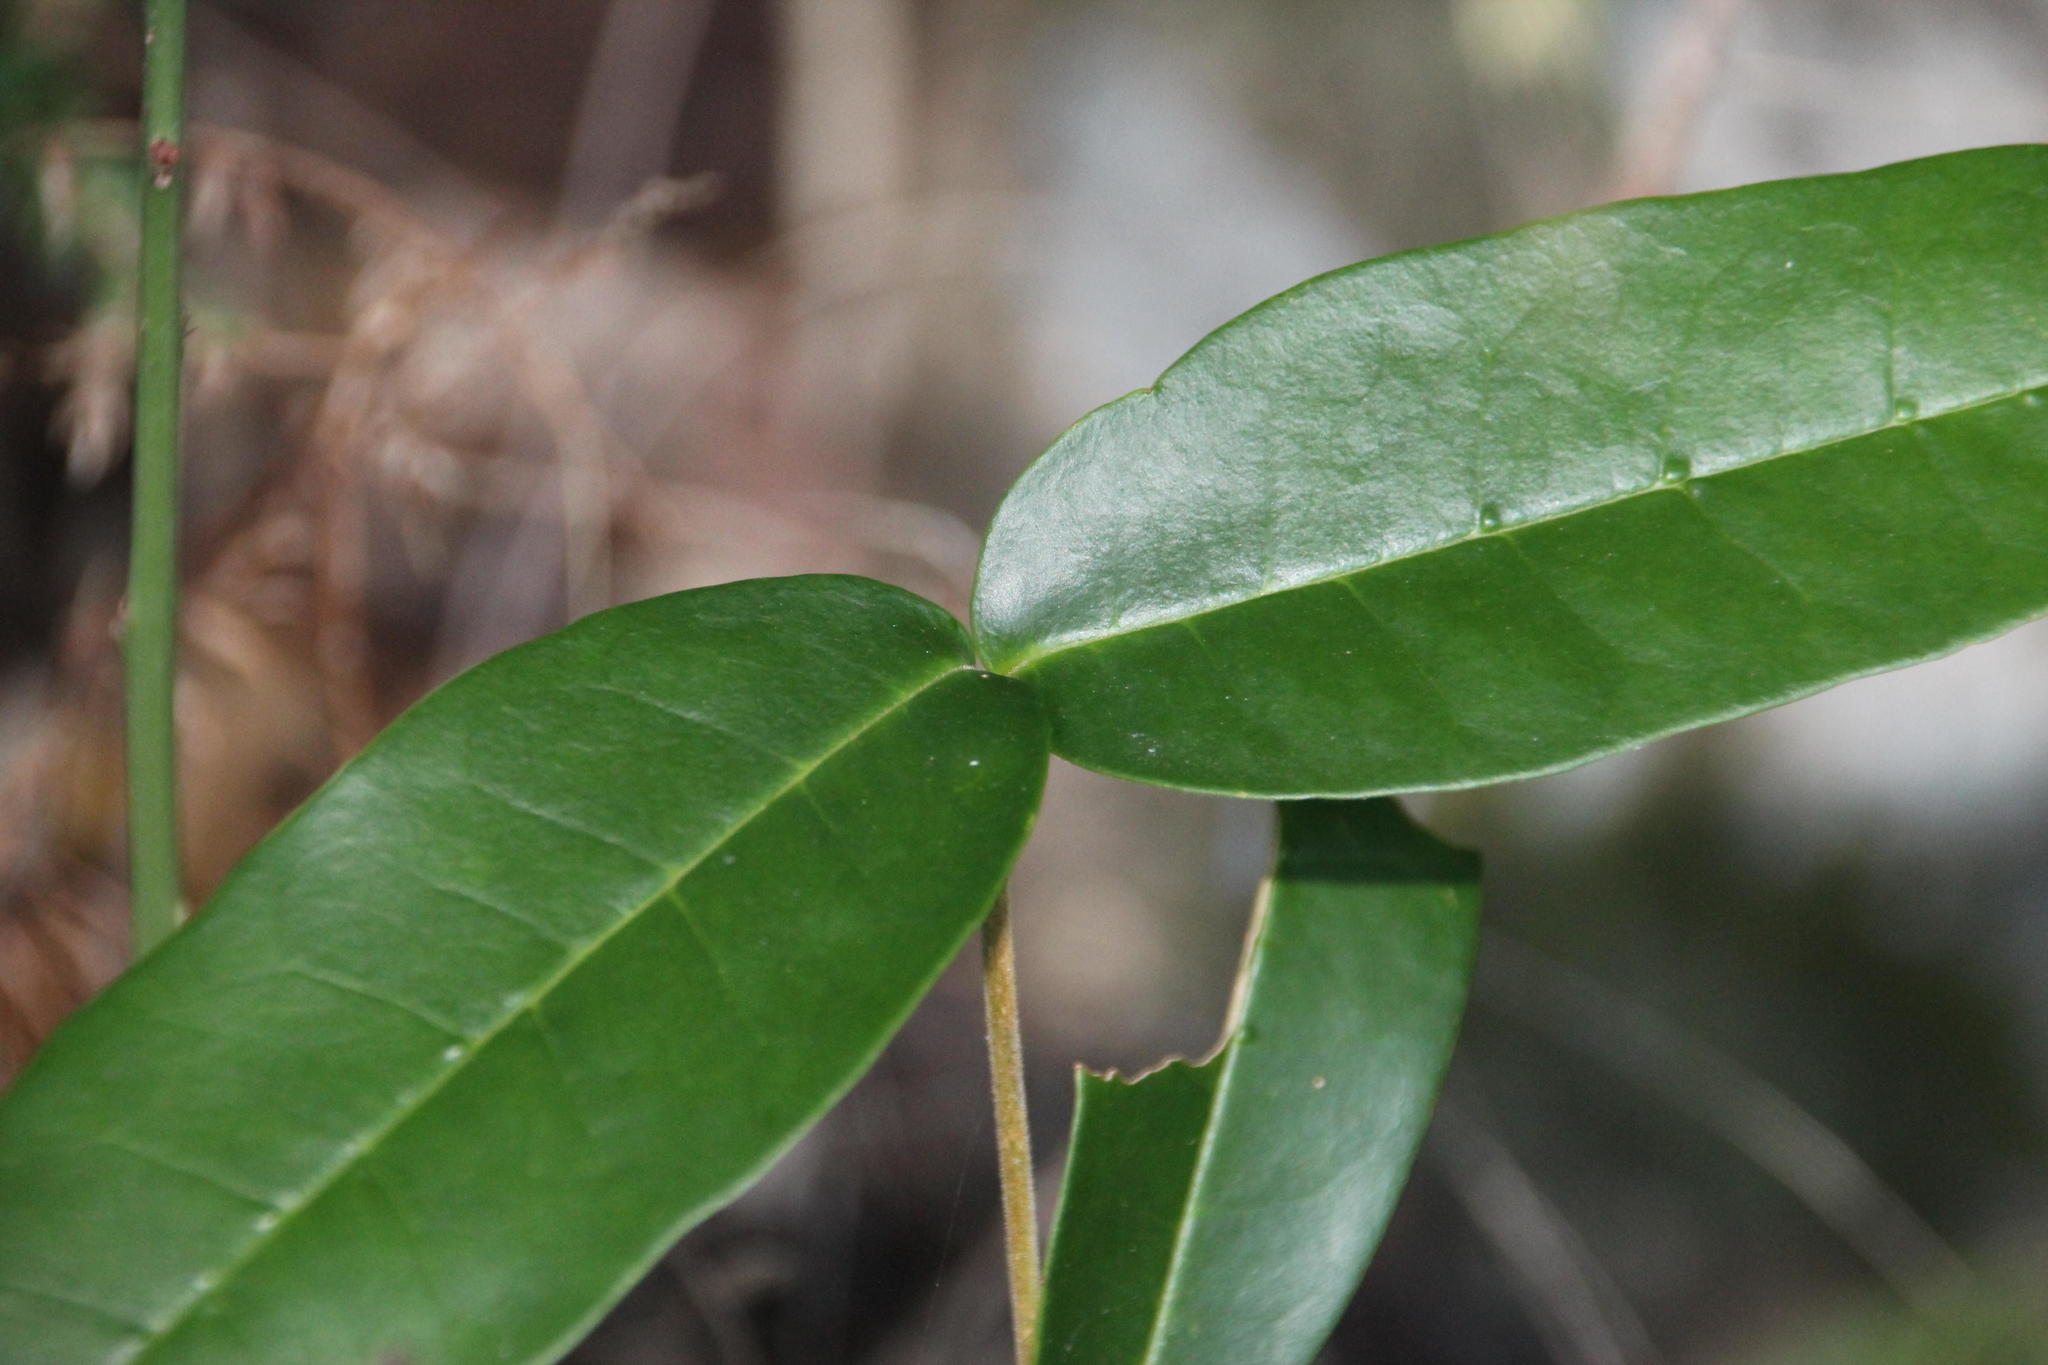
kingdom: Plantae
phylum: Tracheophyta
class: Magnoliopsida
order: Lamiales
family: Oleaceae
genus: Noronhia
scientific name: Noronhia foveolata
